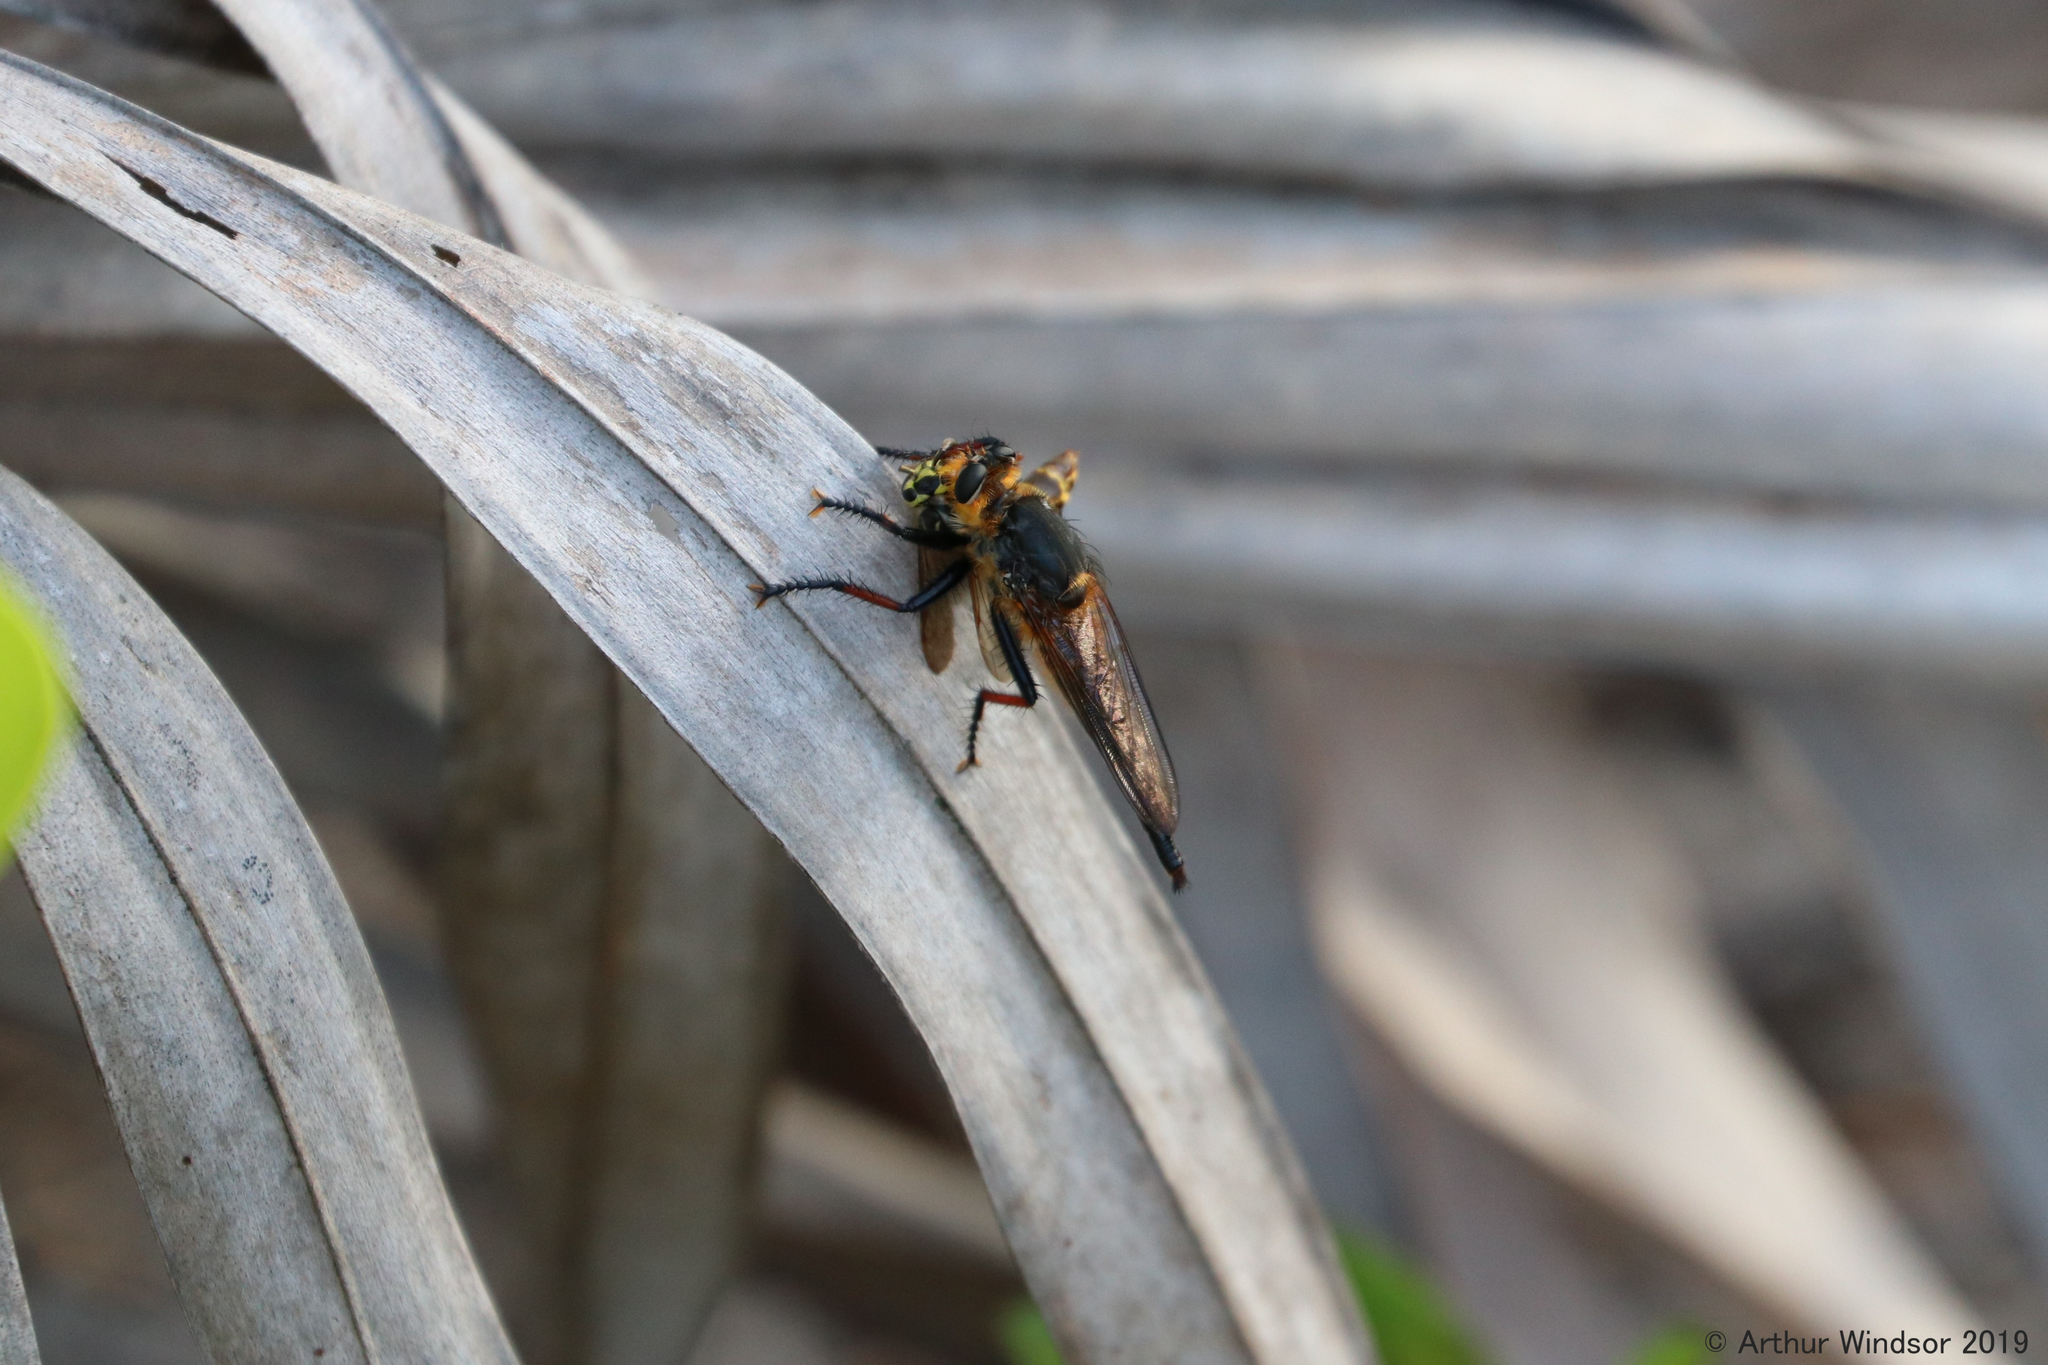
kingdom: Animalia
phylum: Arthropoda
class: Insecta
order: Diptera
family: Asilidae
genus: Proctacanthus
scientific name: Proctacanthus fulviventris
